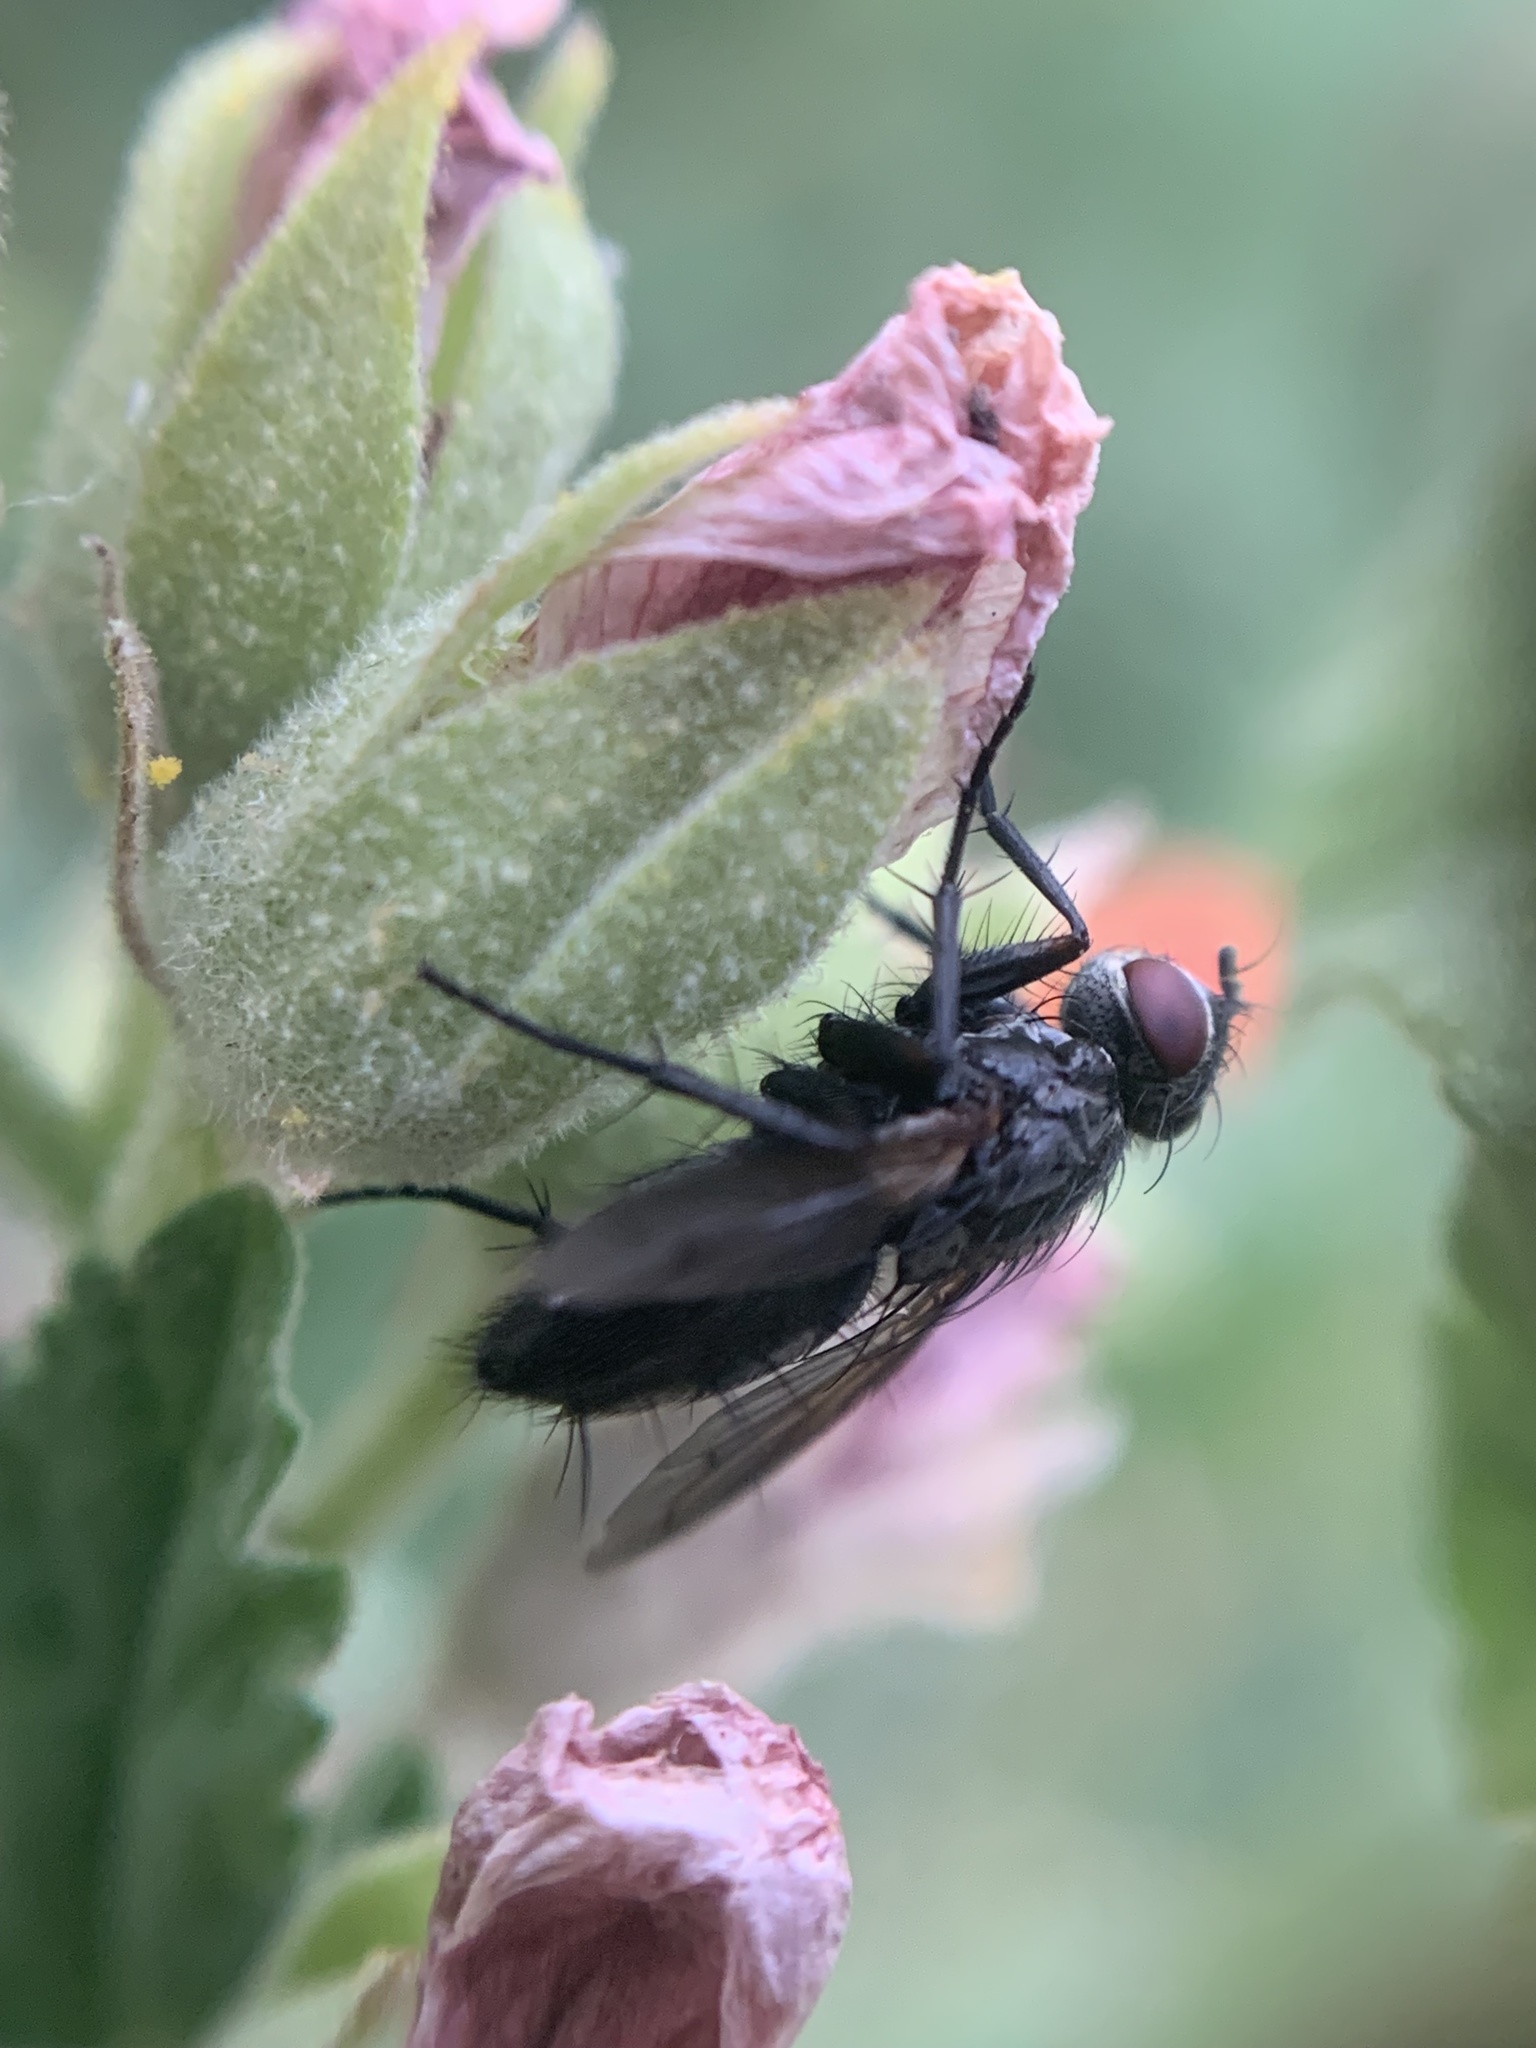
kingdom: Animalia
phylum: Arthropoda
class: Insecta
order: Diptera
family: Calliphoridae
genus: Stevenia
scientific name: Stevenia deceptoria
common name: Grizzled woodlouse-fly
